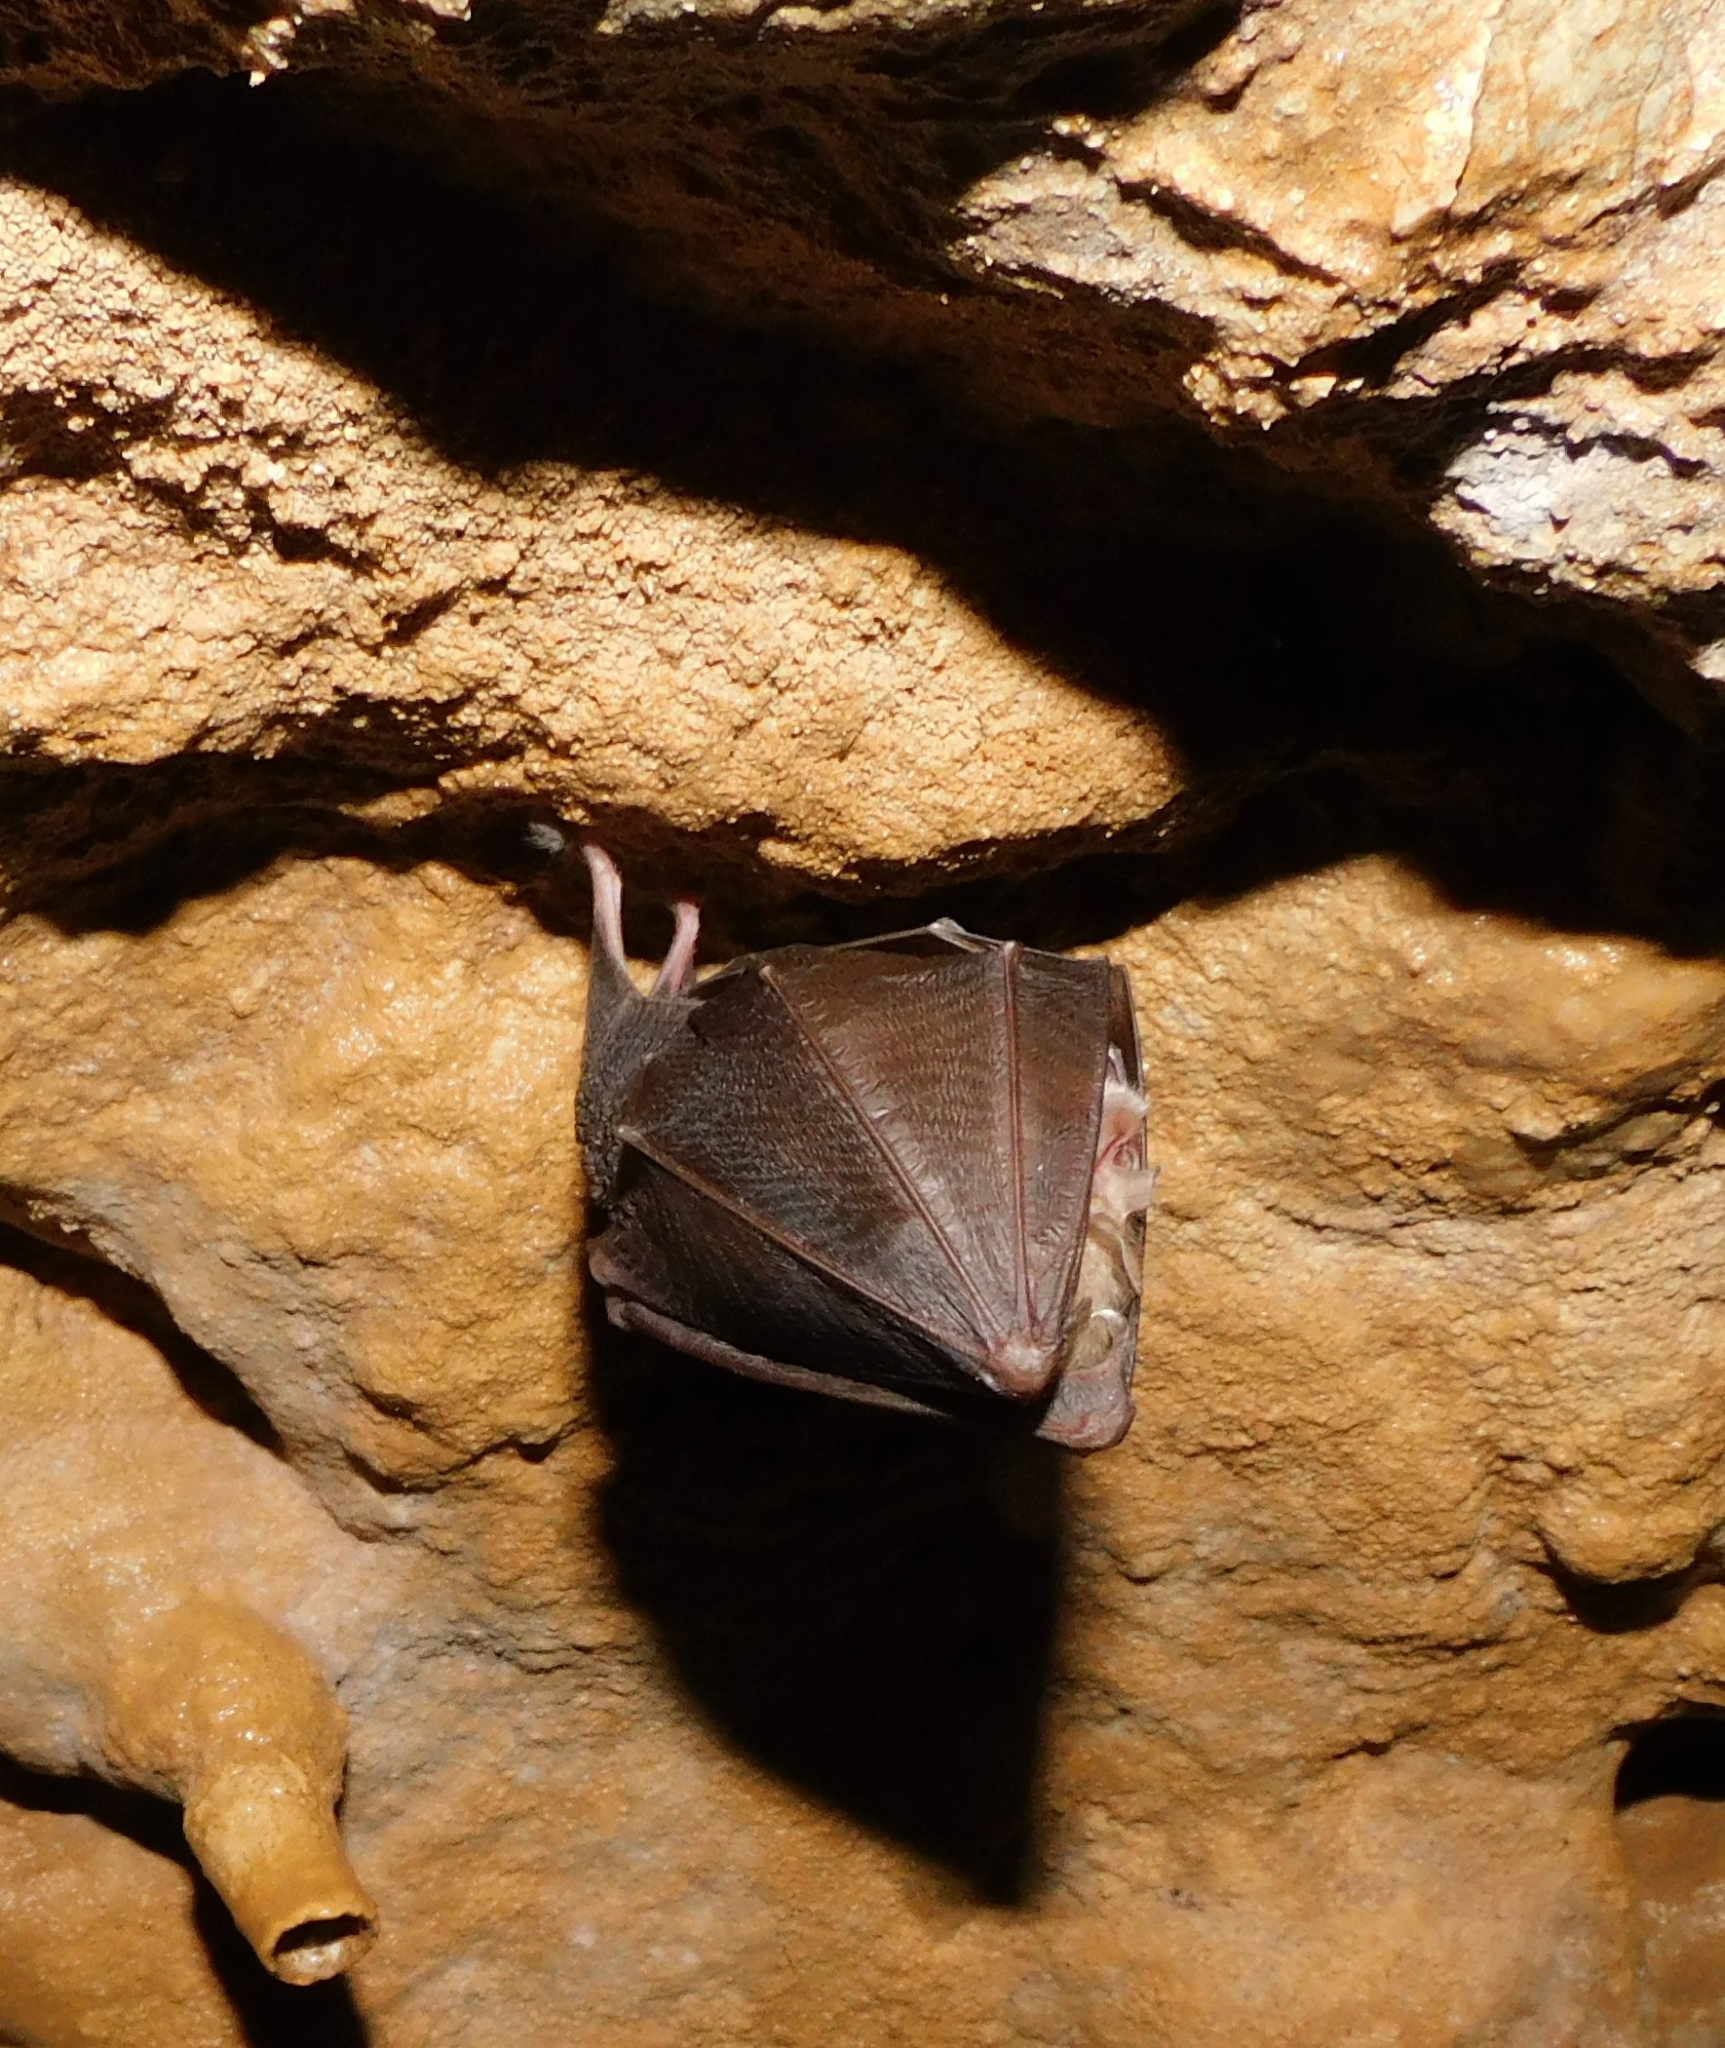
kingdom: Animalia
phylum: Chordata
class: Mammalia
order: Chiroptera
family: Rhinolophidae
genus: Rhinolophus
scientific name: Rhinolophus hipposideros
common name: Lesser horseshoe bat
